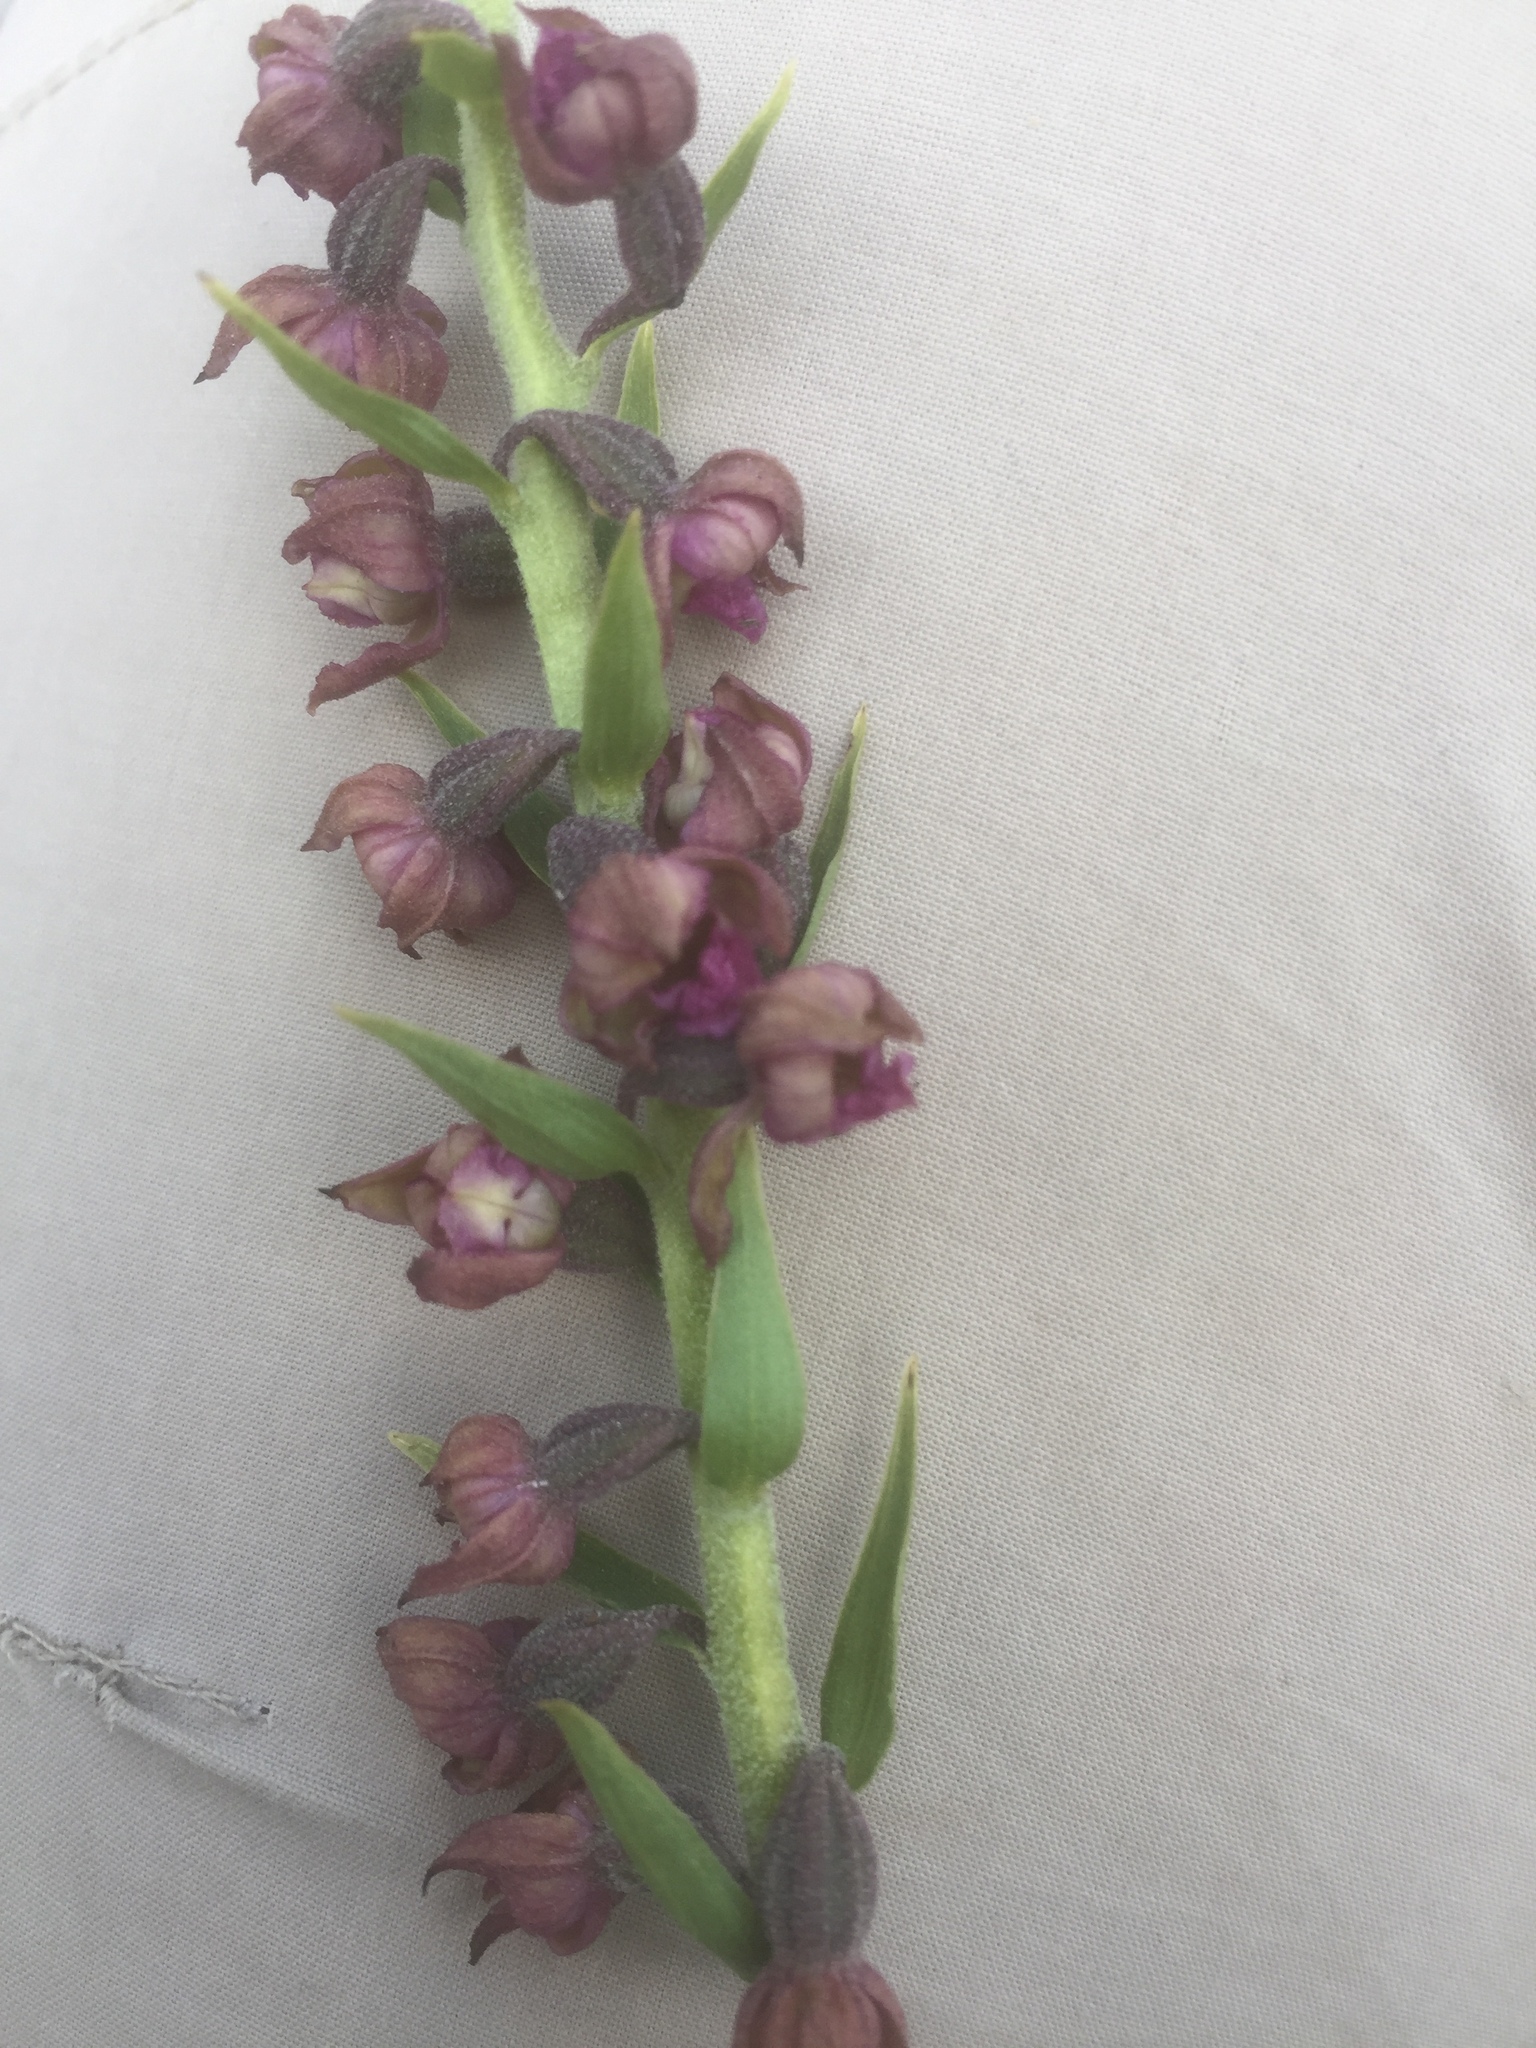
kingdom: Plantae
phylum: Tracheophyta
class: Liliopsida
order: Asparagales
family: Orchidaceae
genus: Epipactis
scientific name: Epipactis atrorubens
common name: Dark-red helleborine
